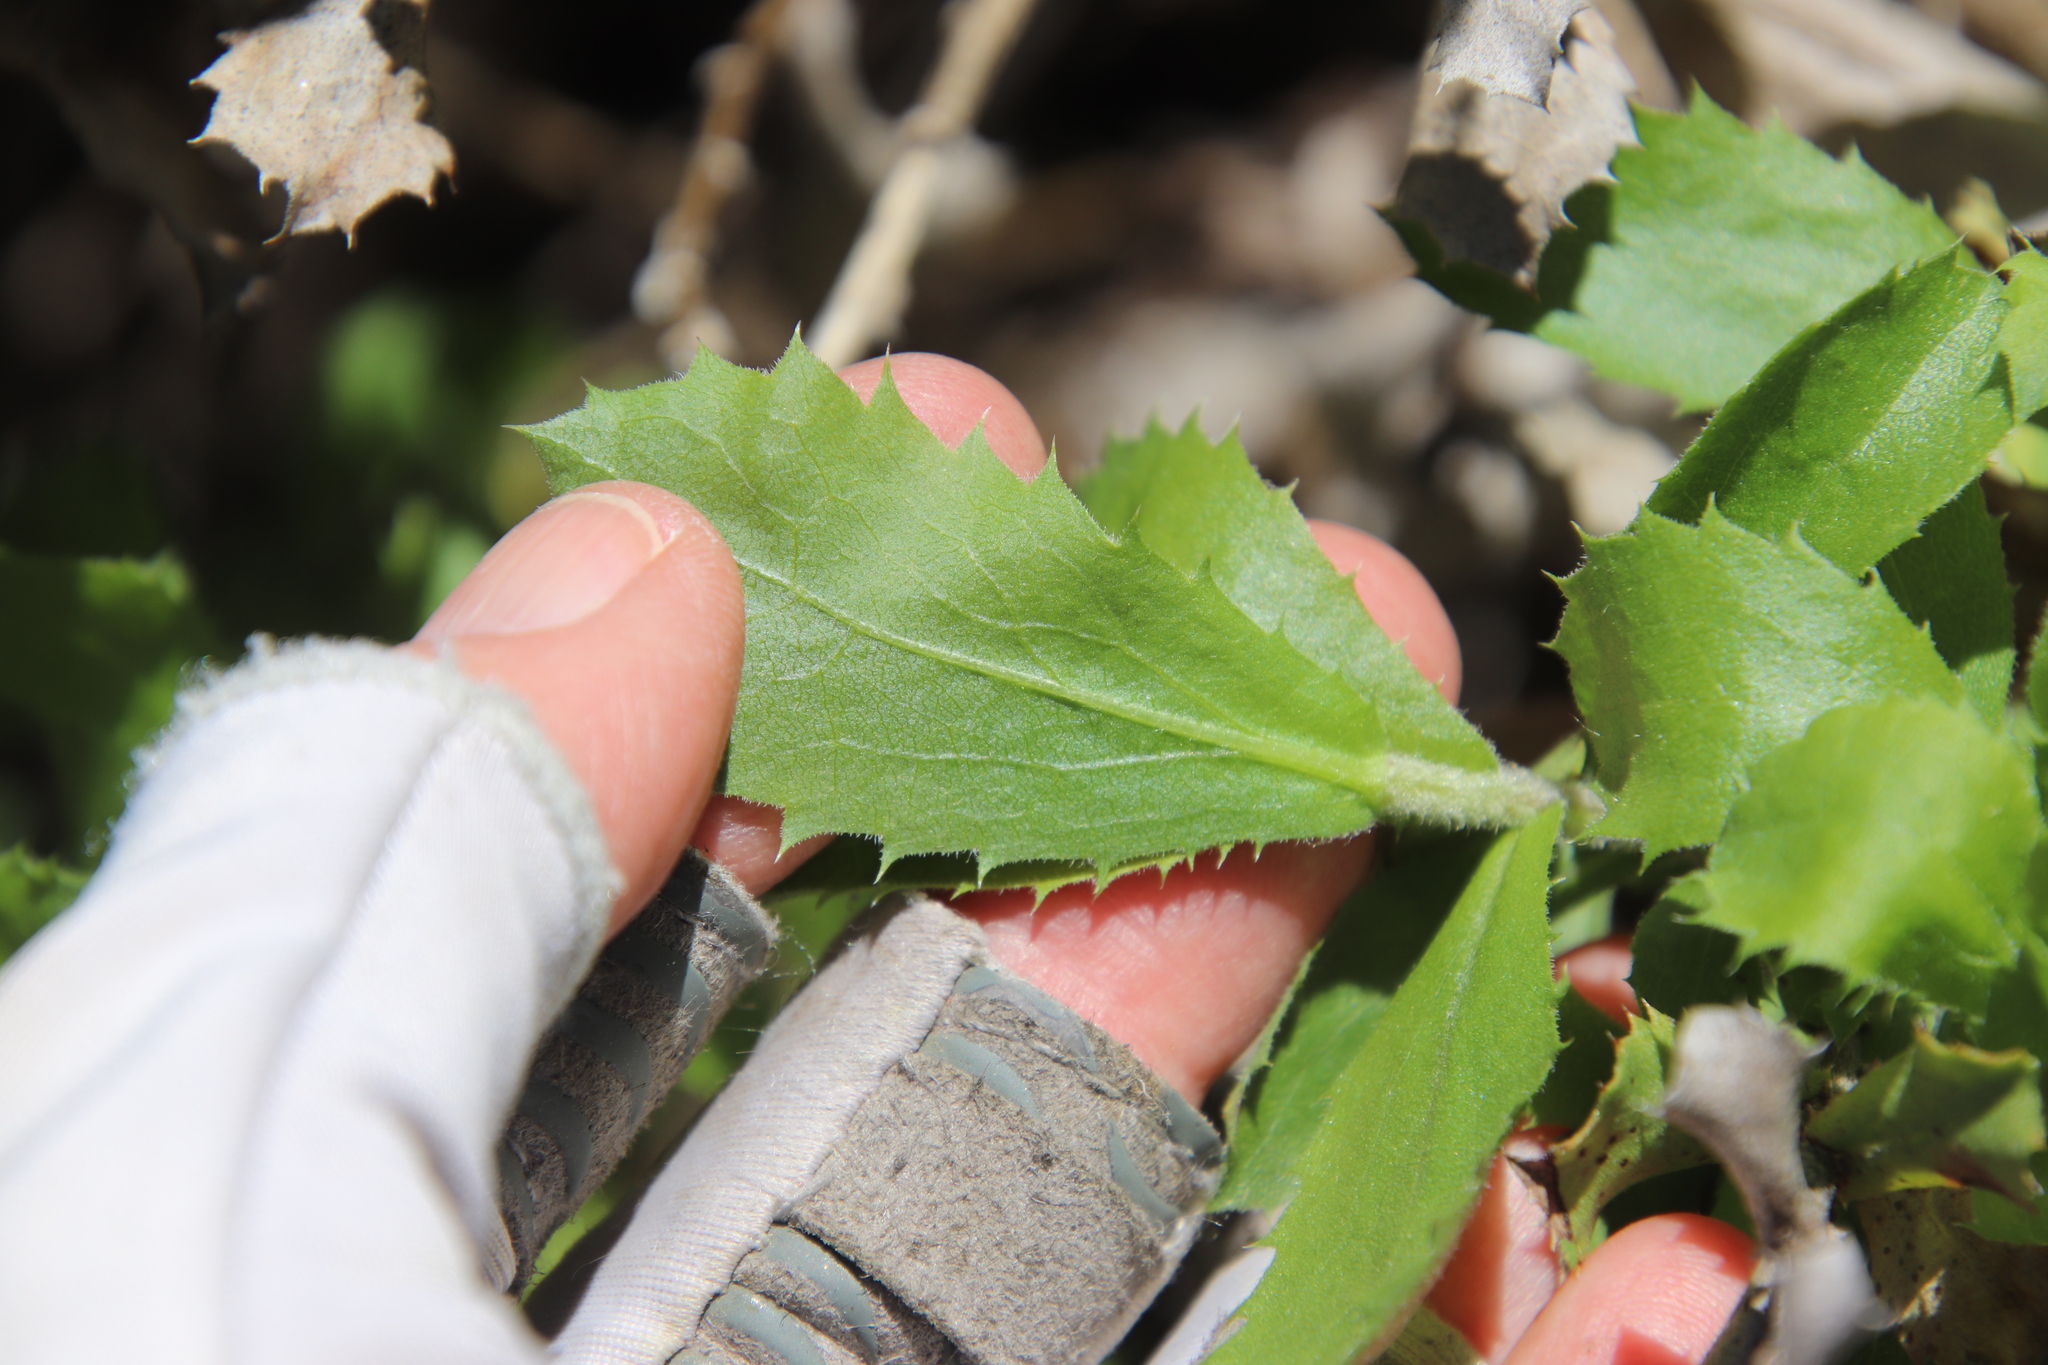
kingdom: Plantae
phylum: Tracheophyta
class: Magnoliopsida
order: Asterales
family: Asteraceae
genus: Hazardia
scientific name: Hazardia squarrosa
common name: Saw-tooth goldenbush
